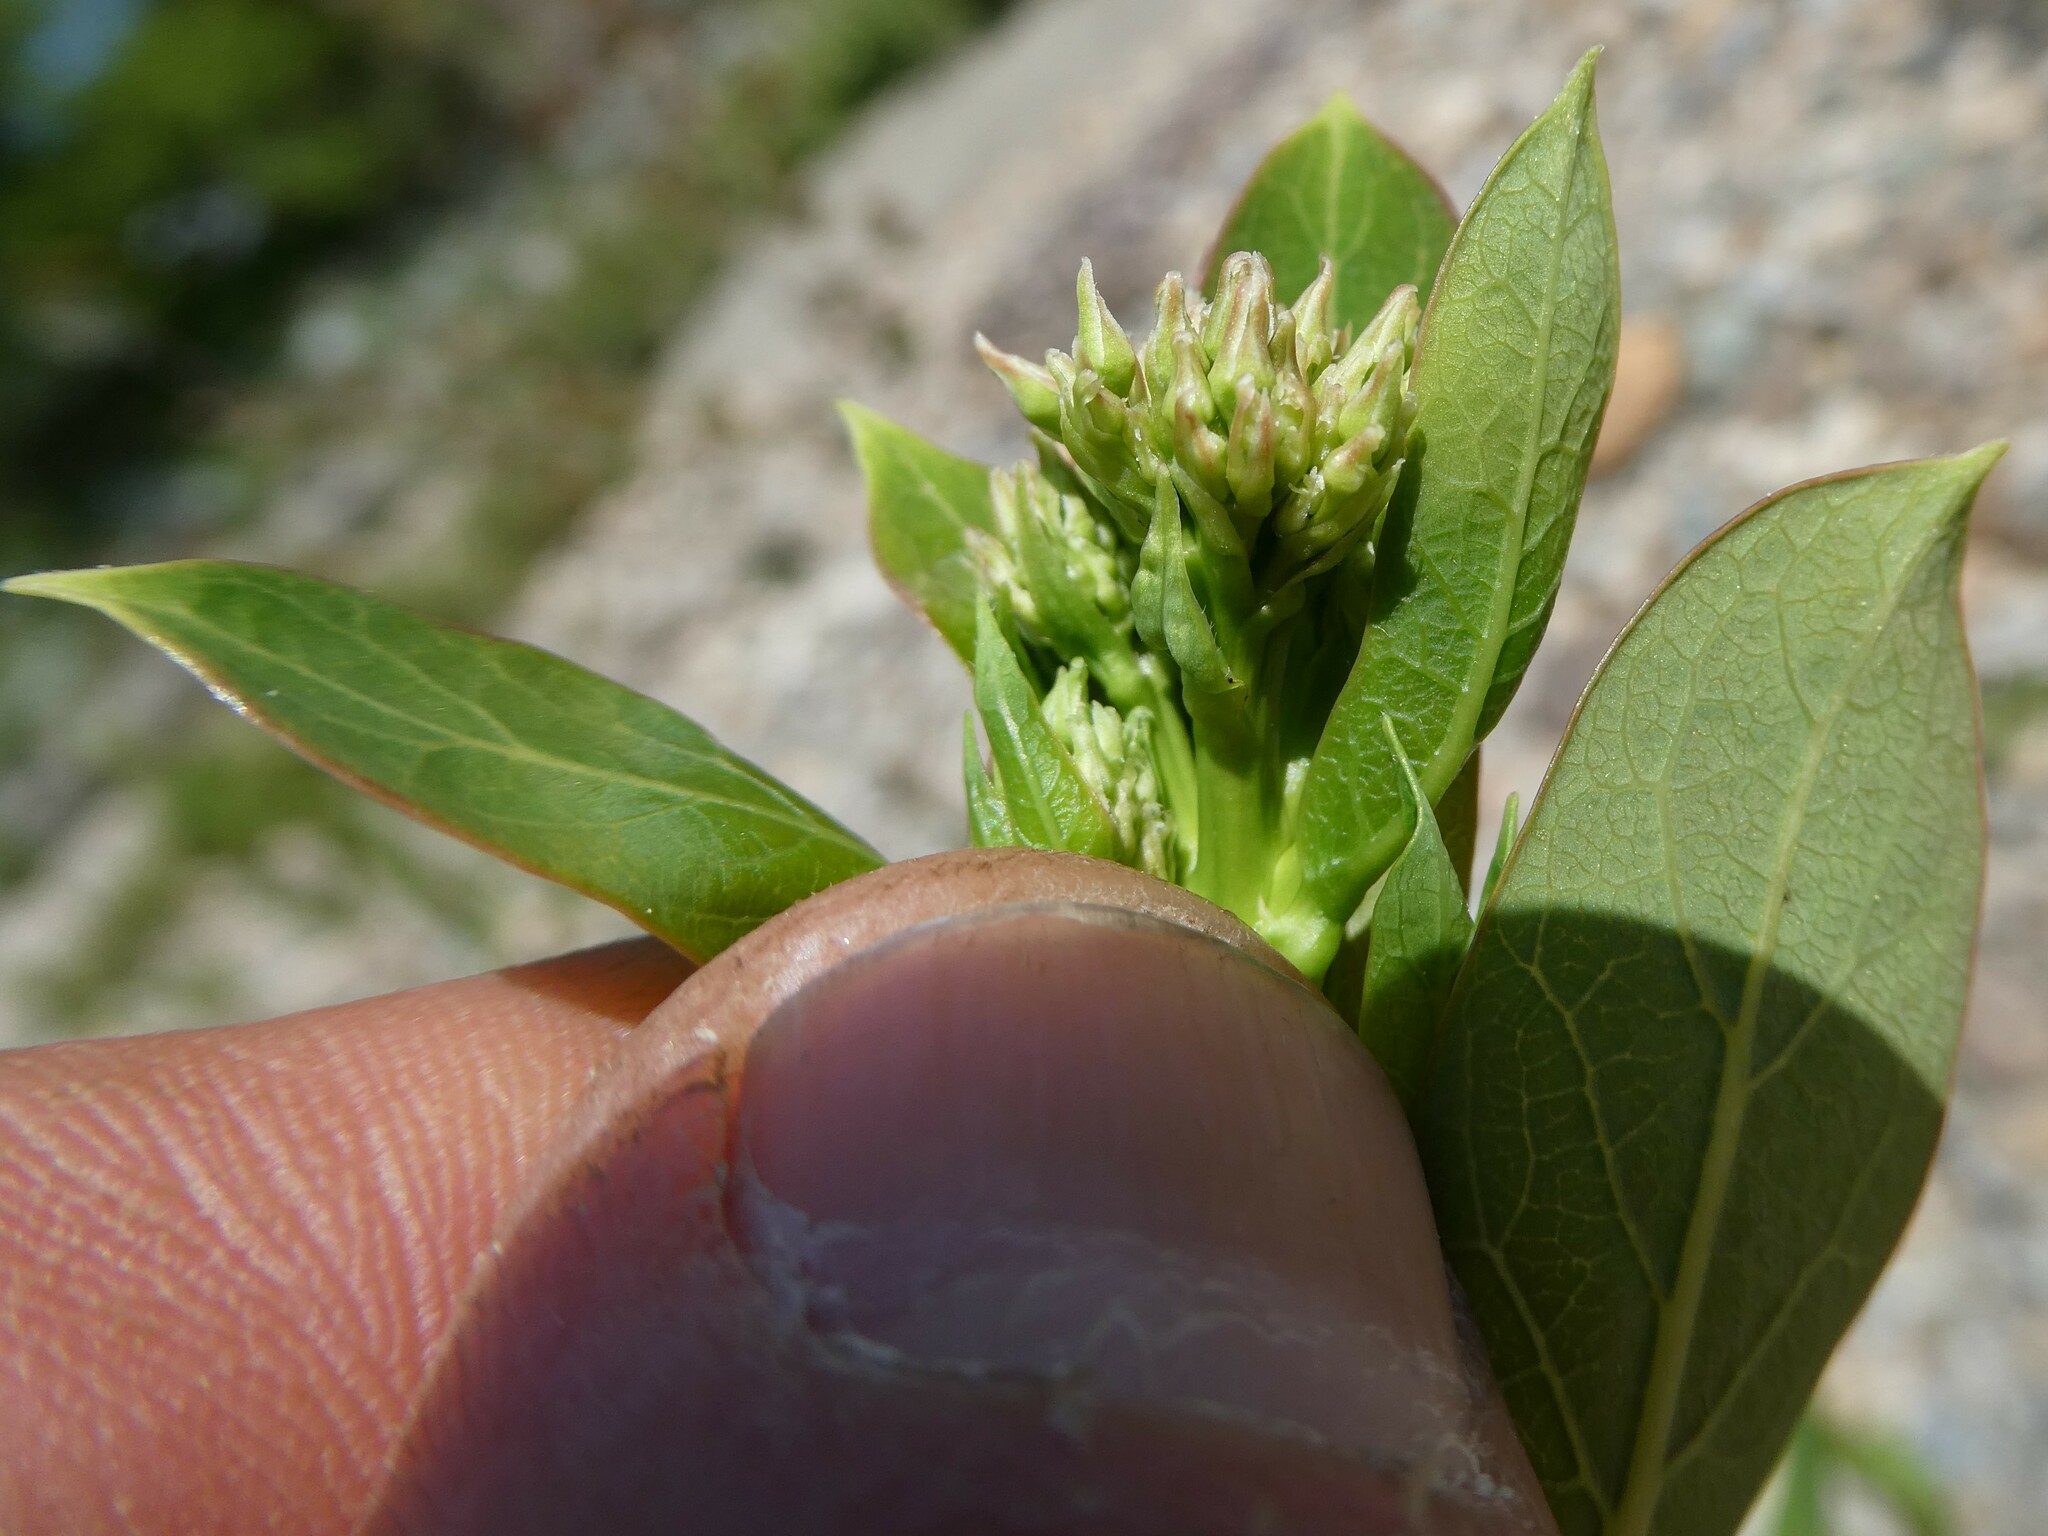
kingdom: Plantae
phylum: Tracheophyta
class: Magnoliopsida
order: Gentianales
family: Apocynaceae
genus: Apocynum
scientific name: Apocynum cannabinum
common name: Hemp dogbane
